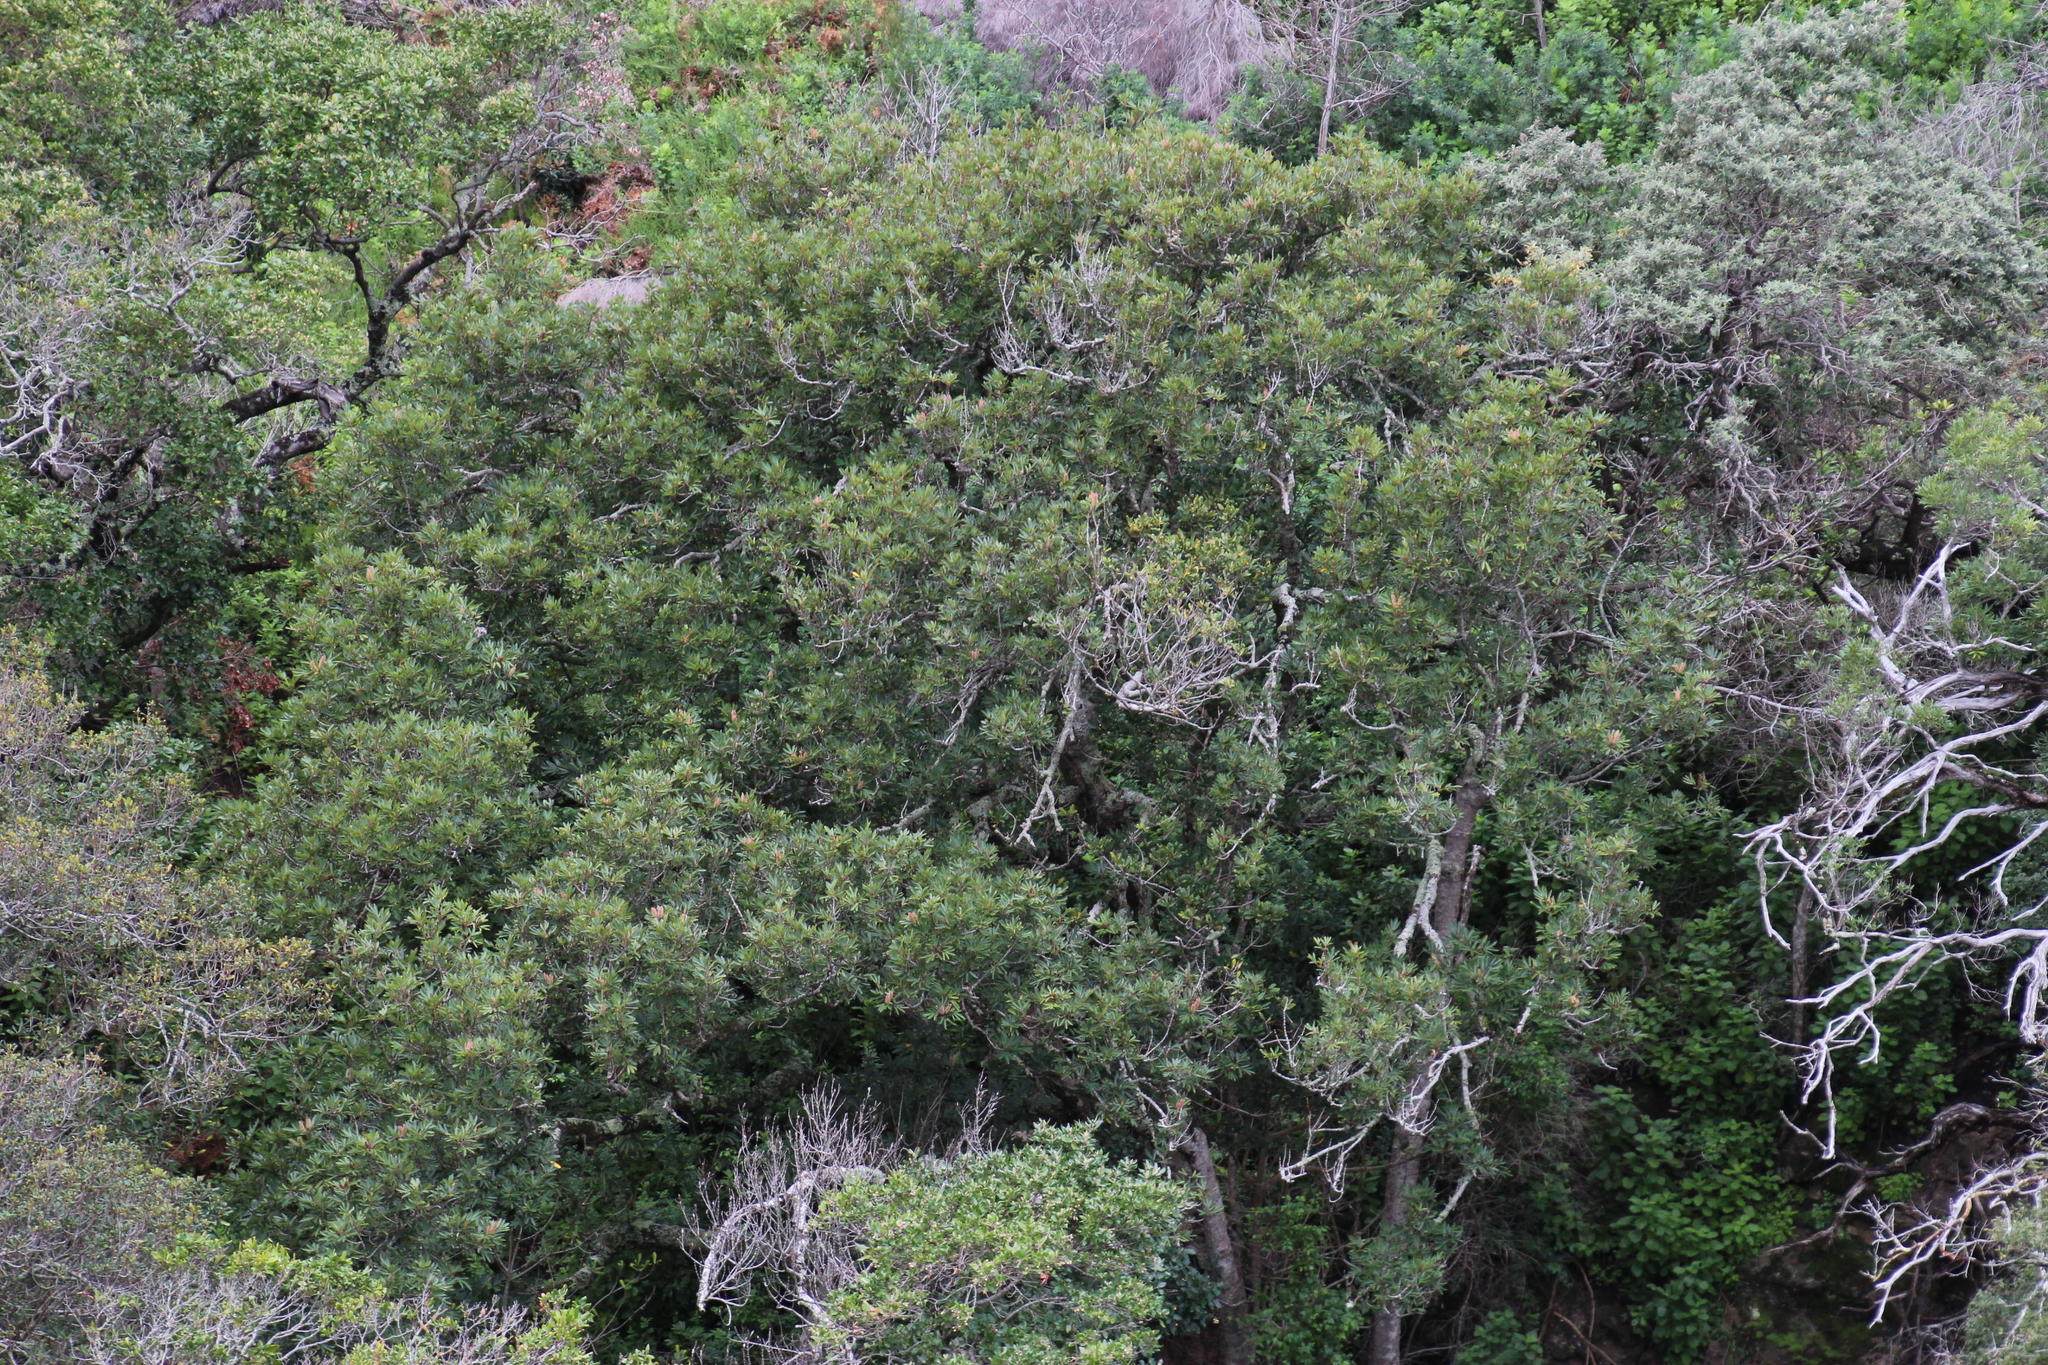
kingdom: Plantae
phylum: Tracheophyta
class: Magnoliopsida
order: Oxalidales
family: Cunoniaceae
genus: Cunonia
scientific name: Cunonia capensis
